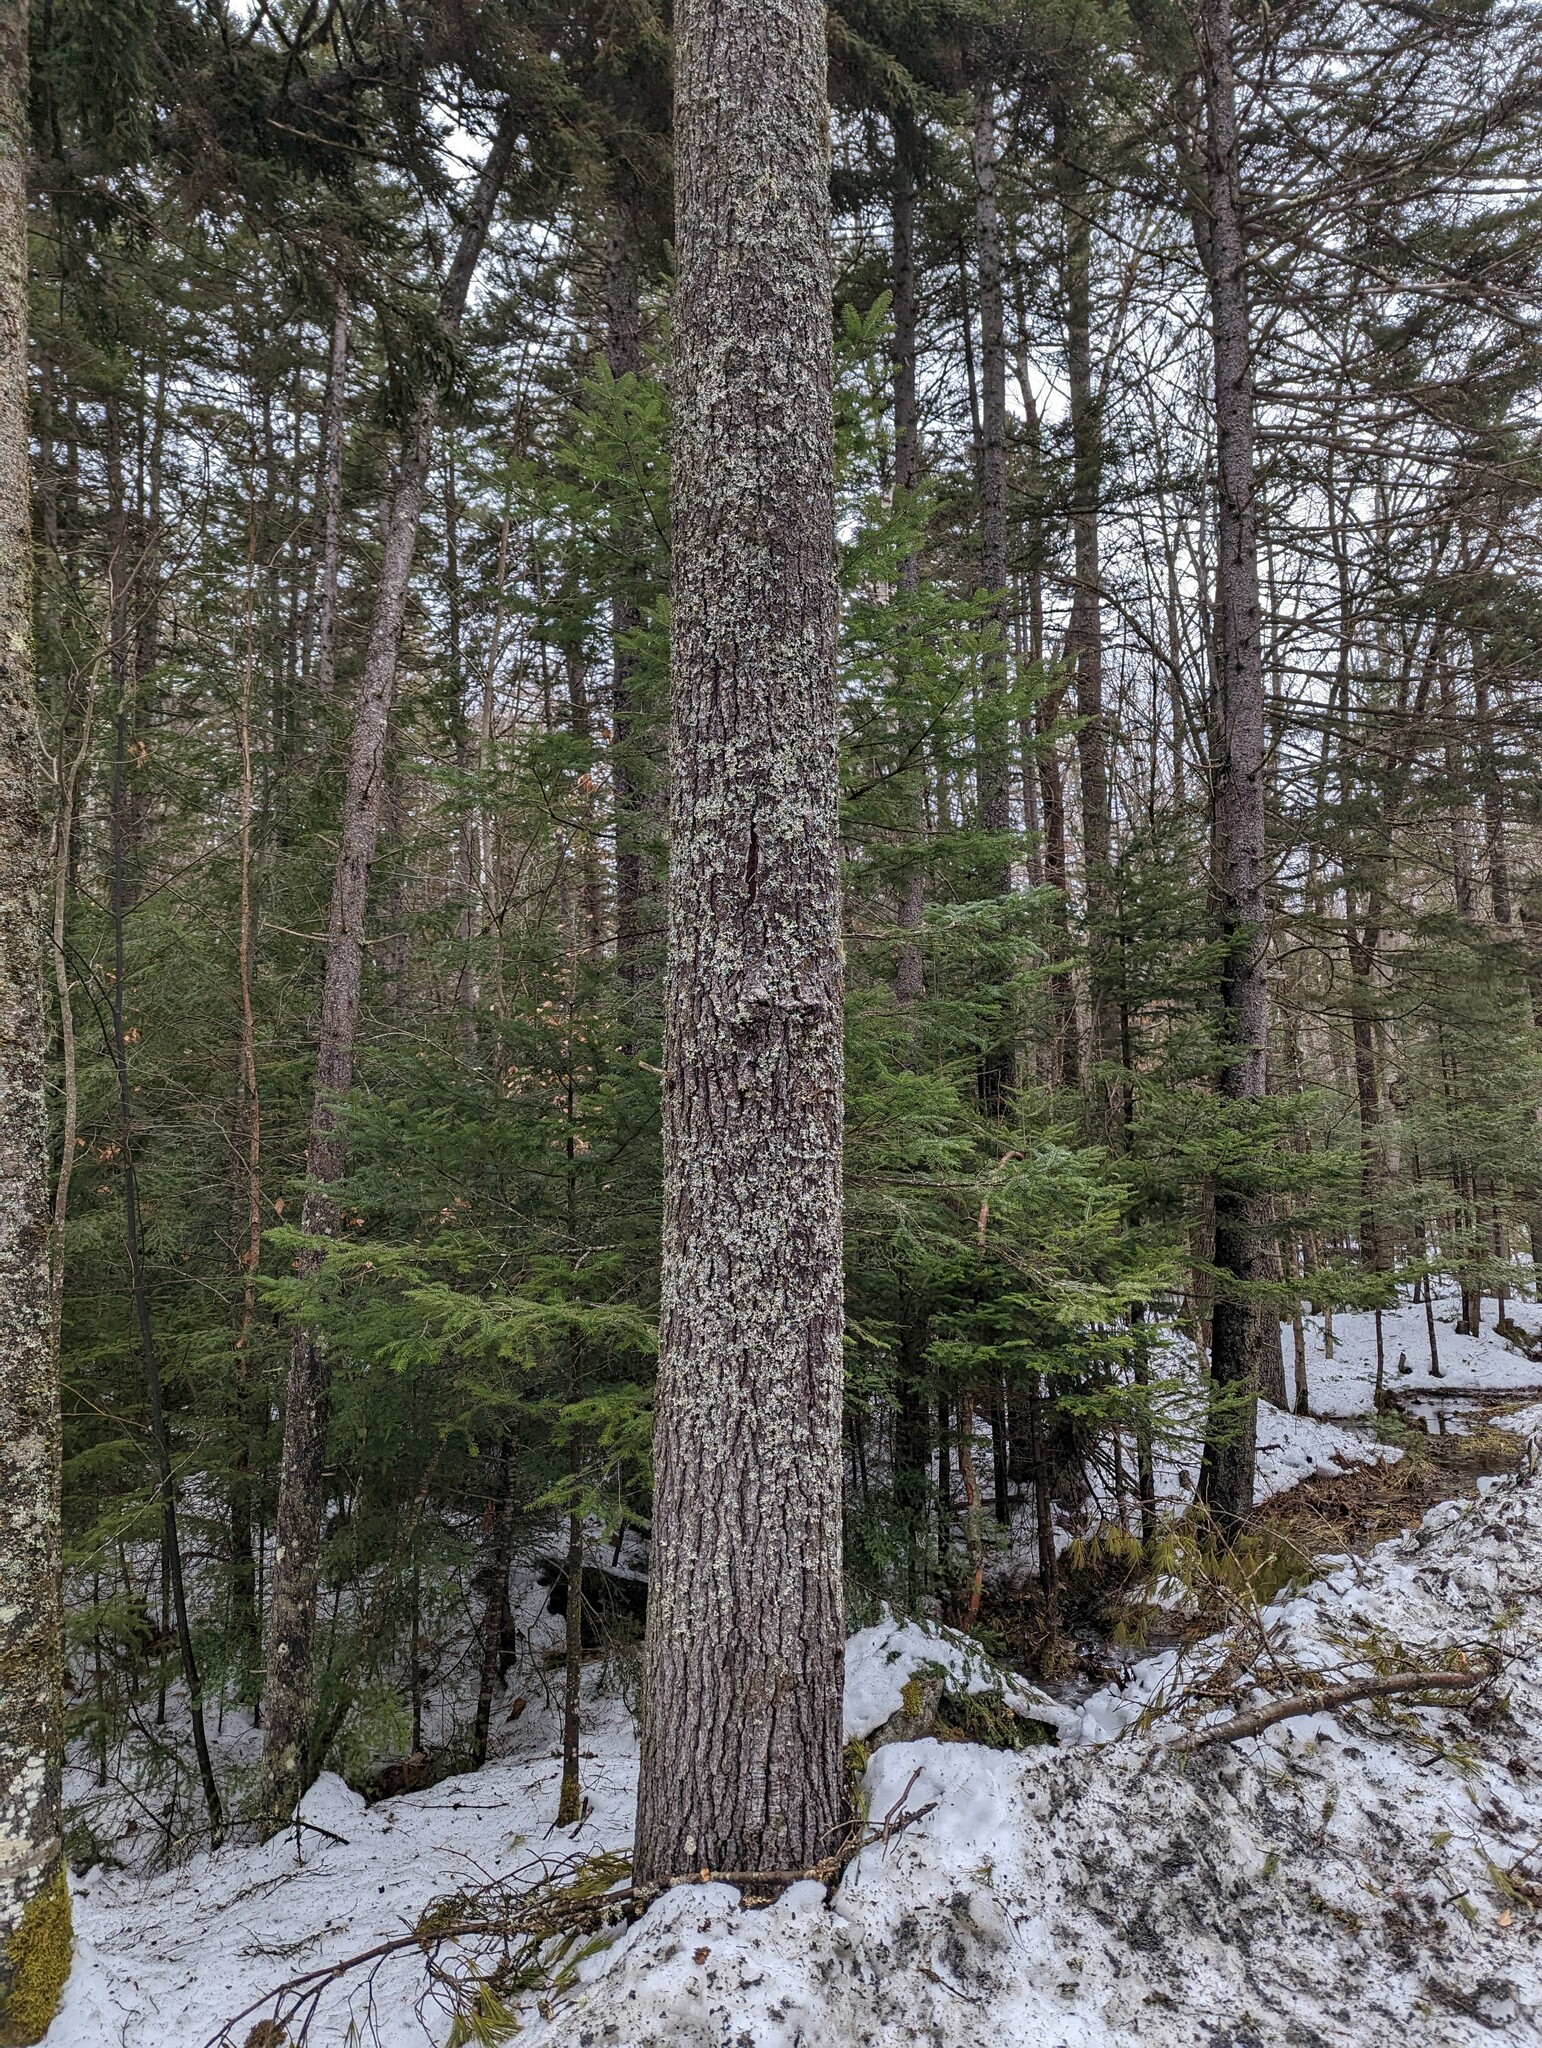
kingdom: Plantae
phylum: Tracheophyta
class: Pinopsida
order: Pinales
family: Pinaceae
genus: Pinus
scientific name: Pinus strobus
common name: Weymouth pine
